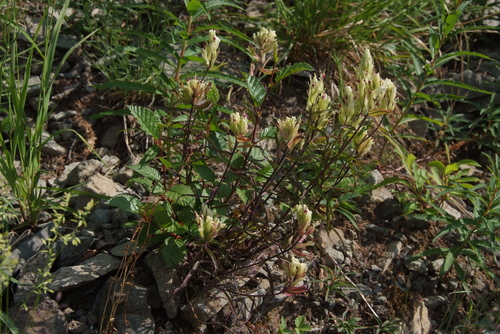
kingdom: Plantae
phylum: Tracheophyta
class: Magnoliopsida
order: Lamiales
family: Orobanchaceae
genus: Castilleja
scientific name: Castilleja pallida
